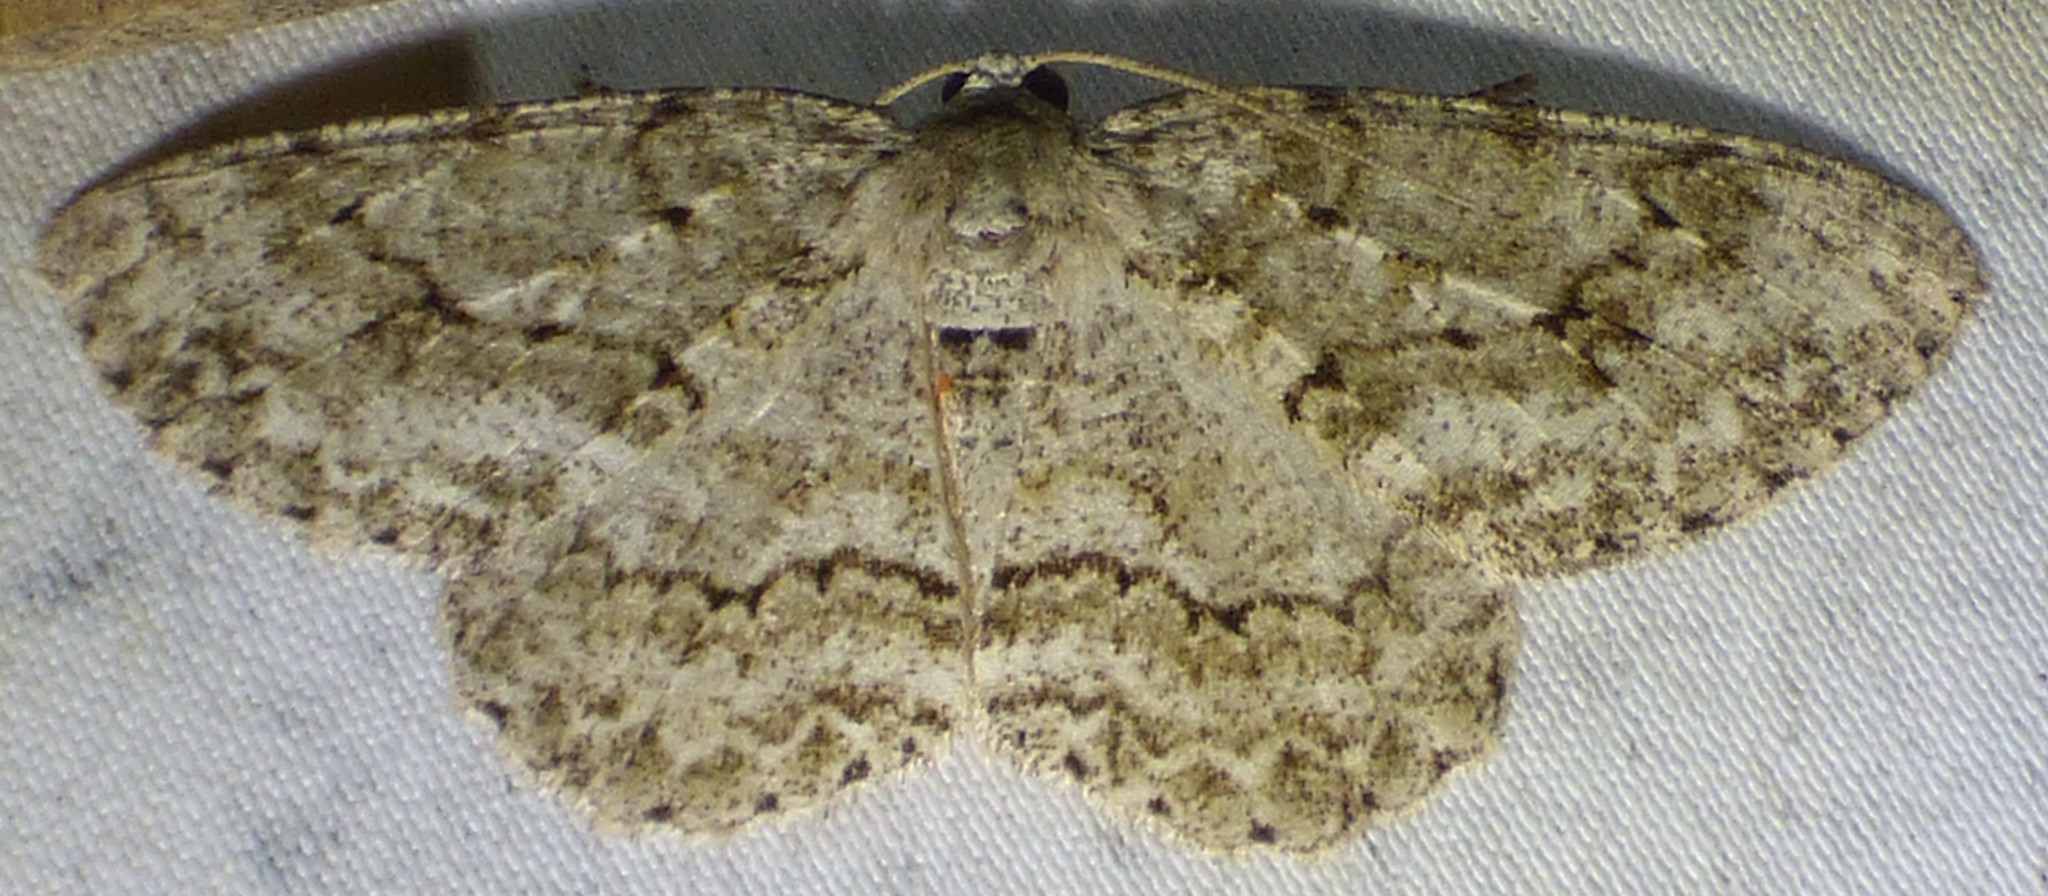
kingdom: Animalia
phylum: Arthropoda
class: Insecta
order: Lepidoptera
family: Geometridae
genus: Ectropis
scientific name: Ectropis crepuscularia
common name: Engrailed
